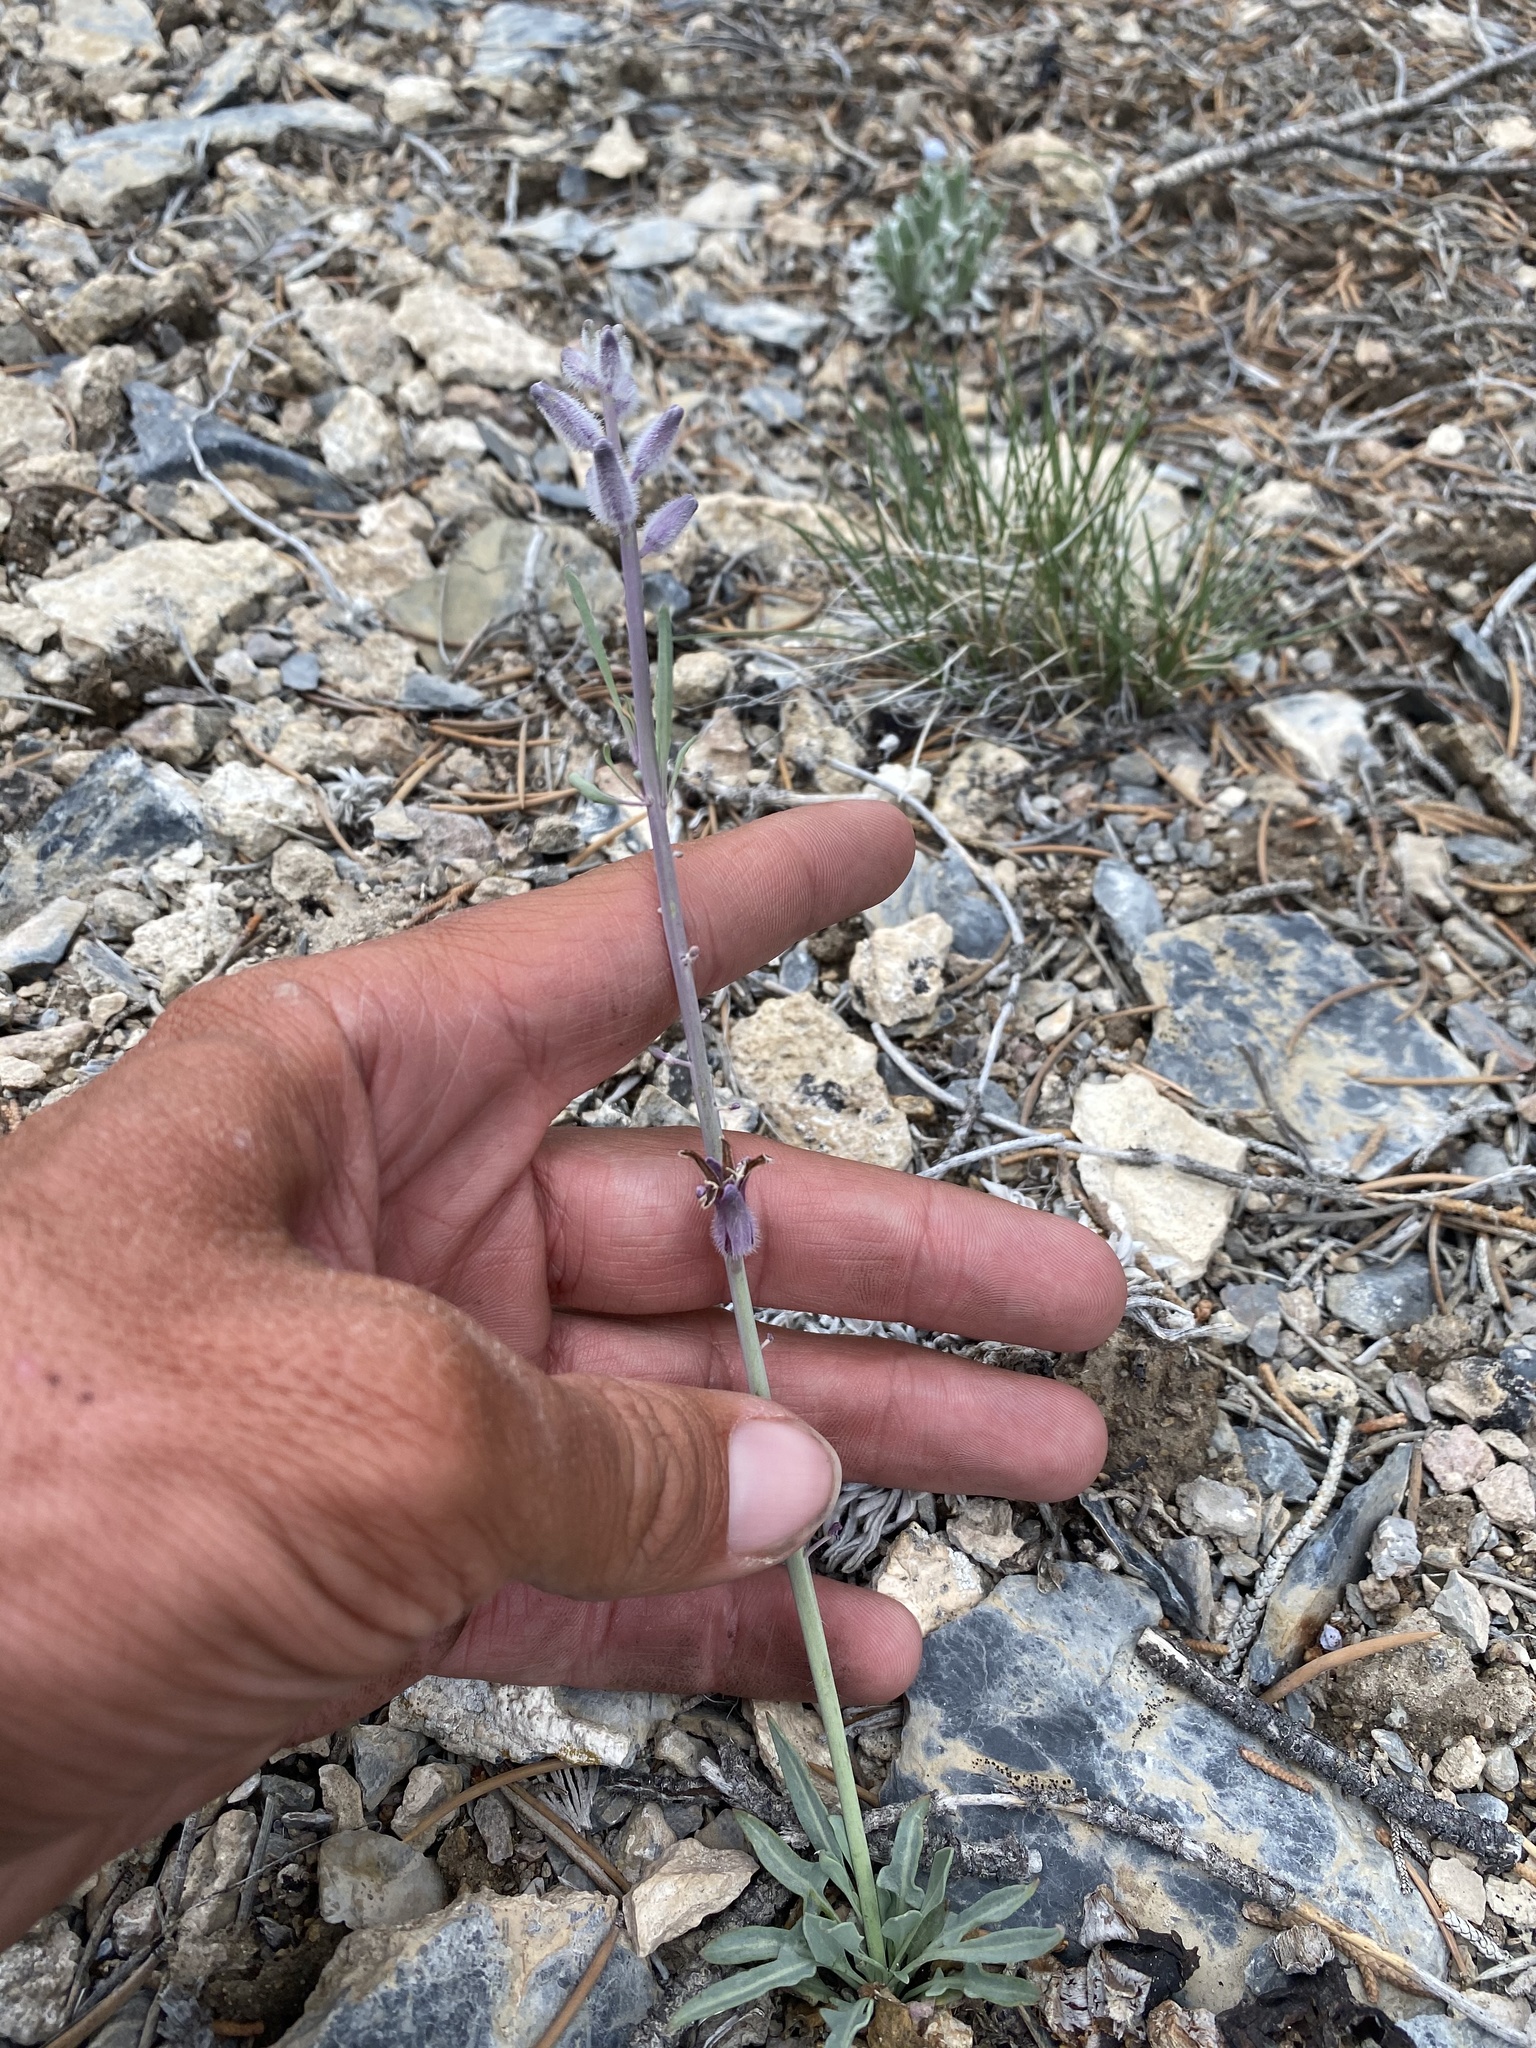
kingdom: Plantae
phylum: Tracheophyta
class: Magnoliopsida
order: Brassicales
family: Brassicaceae
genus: Streptanthus
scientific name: Streptanthus crassicaulis
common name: Thick-stem wild cabbage
